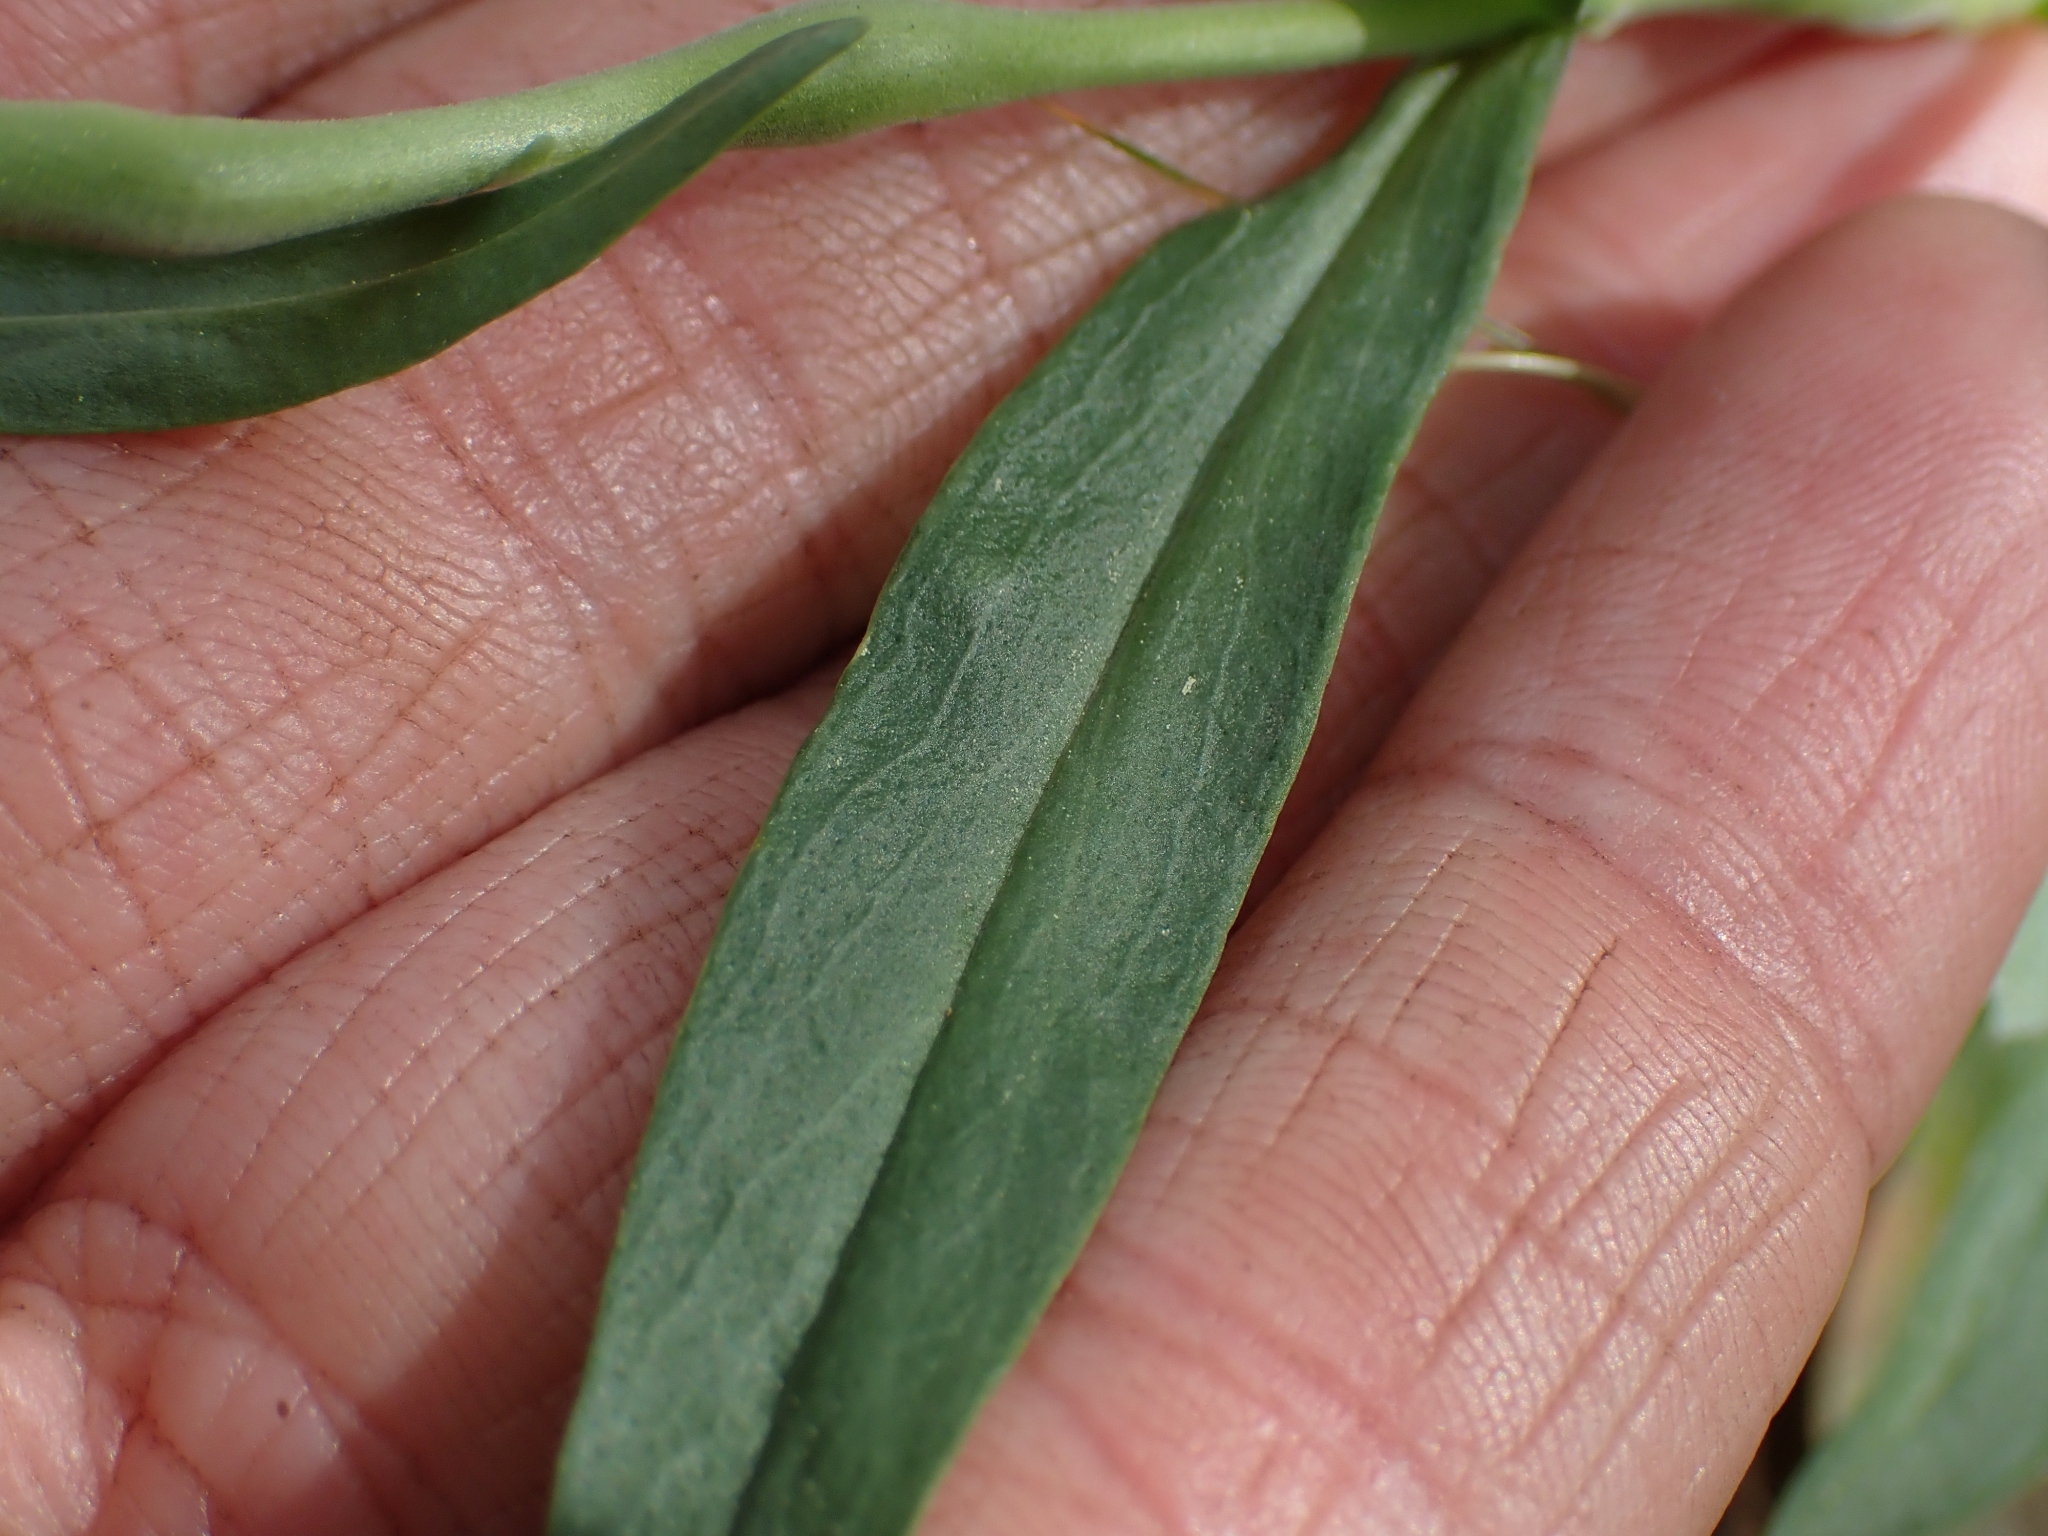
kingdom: Plantae
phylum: Tracheophyta
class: Magnoliopsida
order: Lamiales
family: Plantaginaceae
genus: Penstemon
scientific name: Penstemon confertus
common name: Lesser yellow beardtongue
